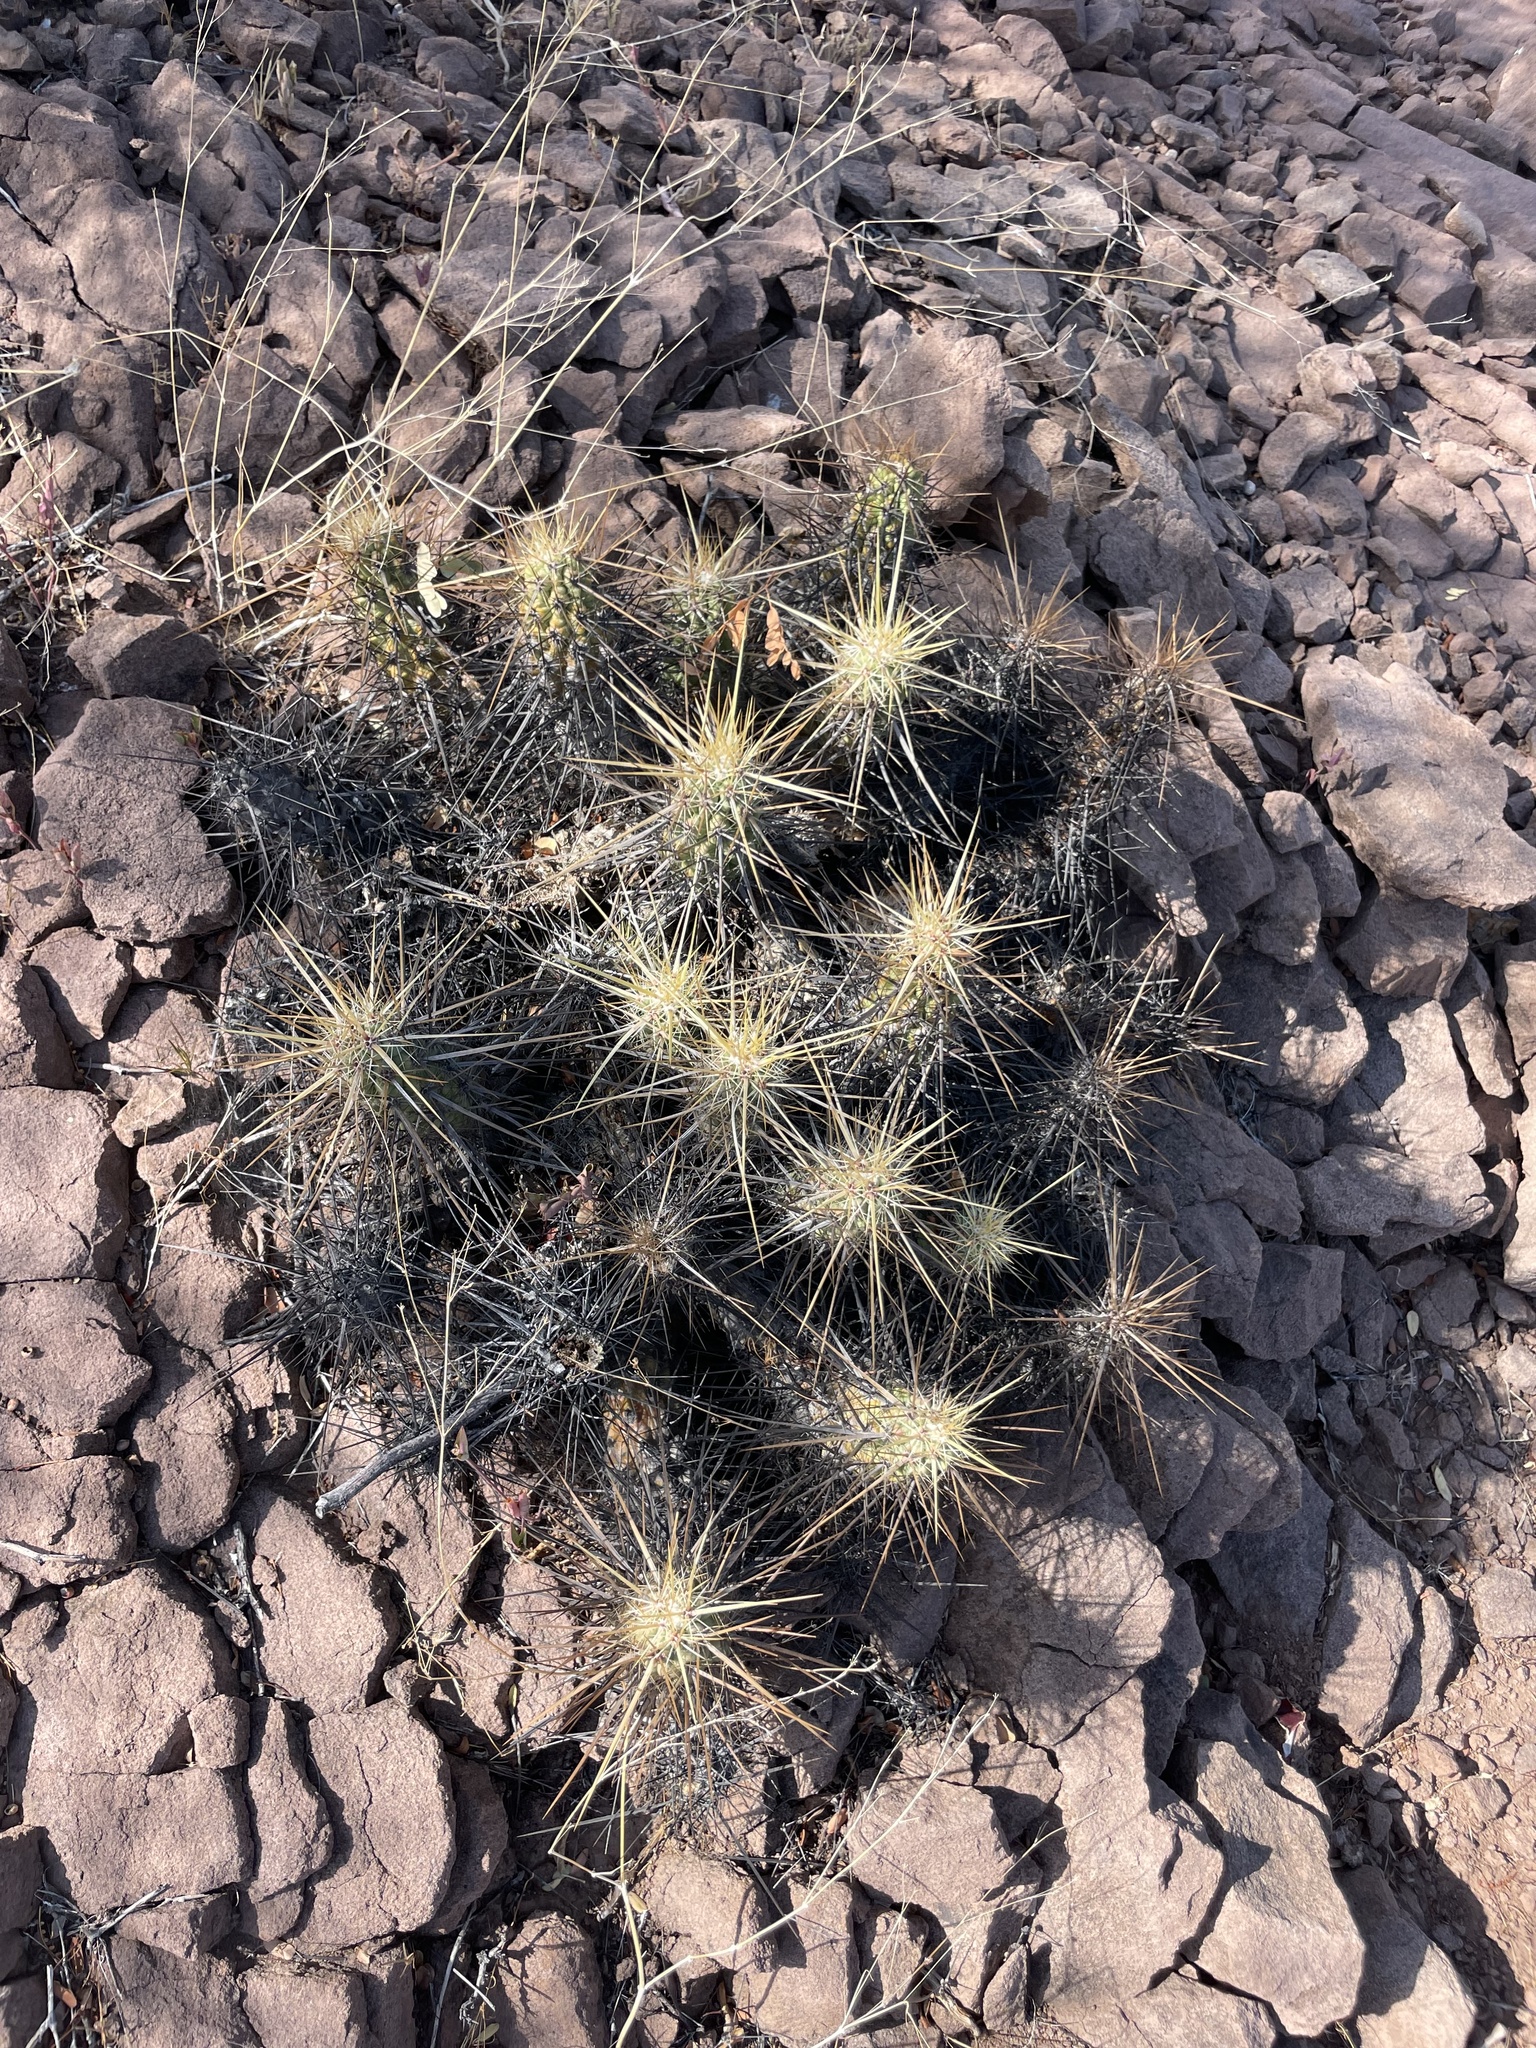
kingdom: Plantae
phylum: Tracheophyta
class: Magnoliopsida
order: Caryophyllales
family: Cactaceae
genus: Echinocereus
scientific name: Echinocereus brandegeei
